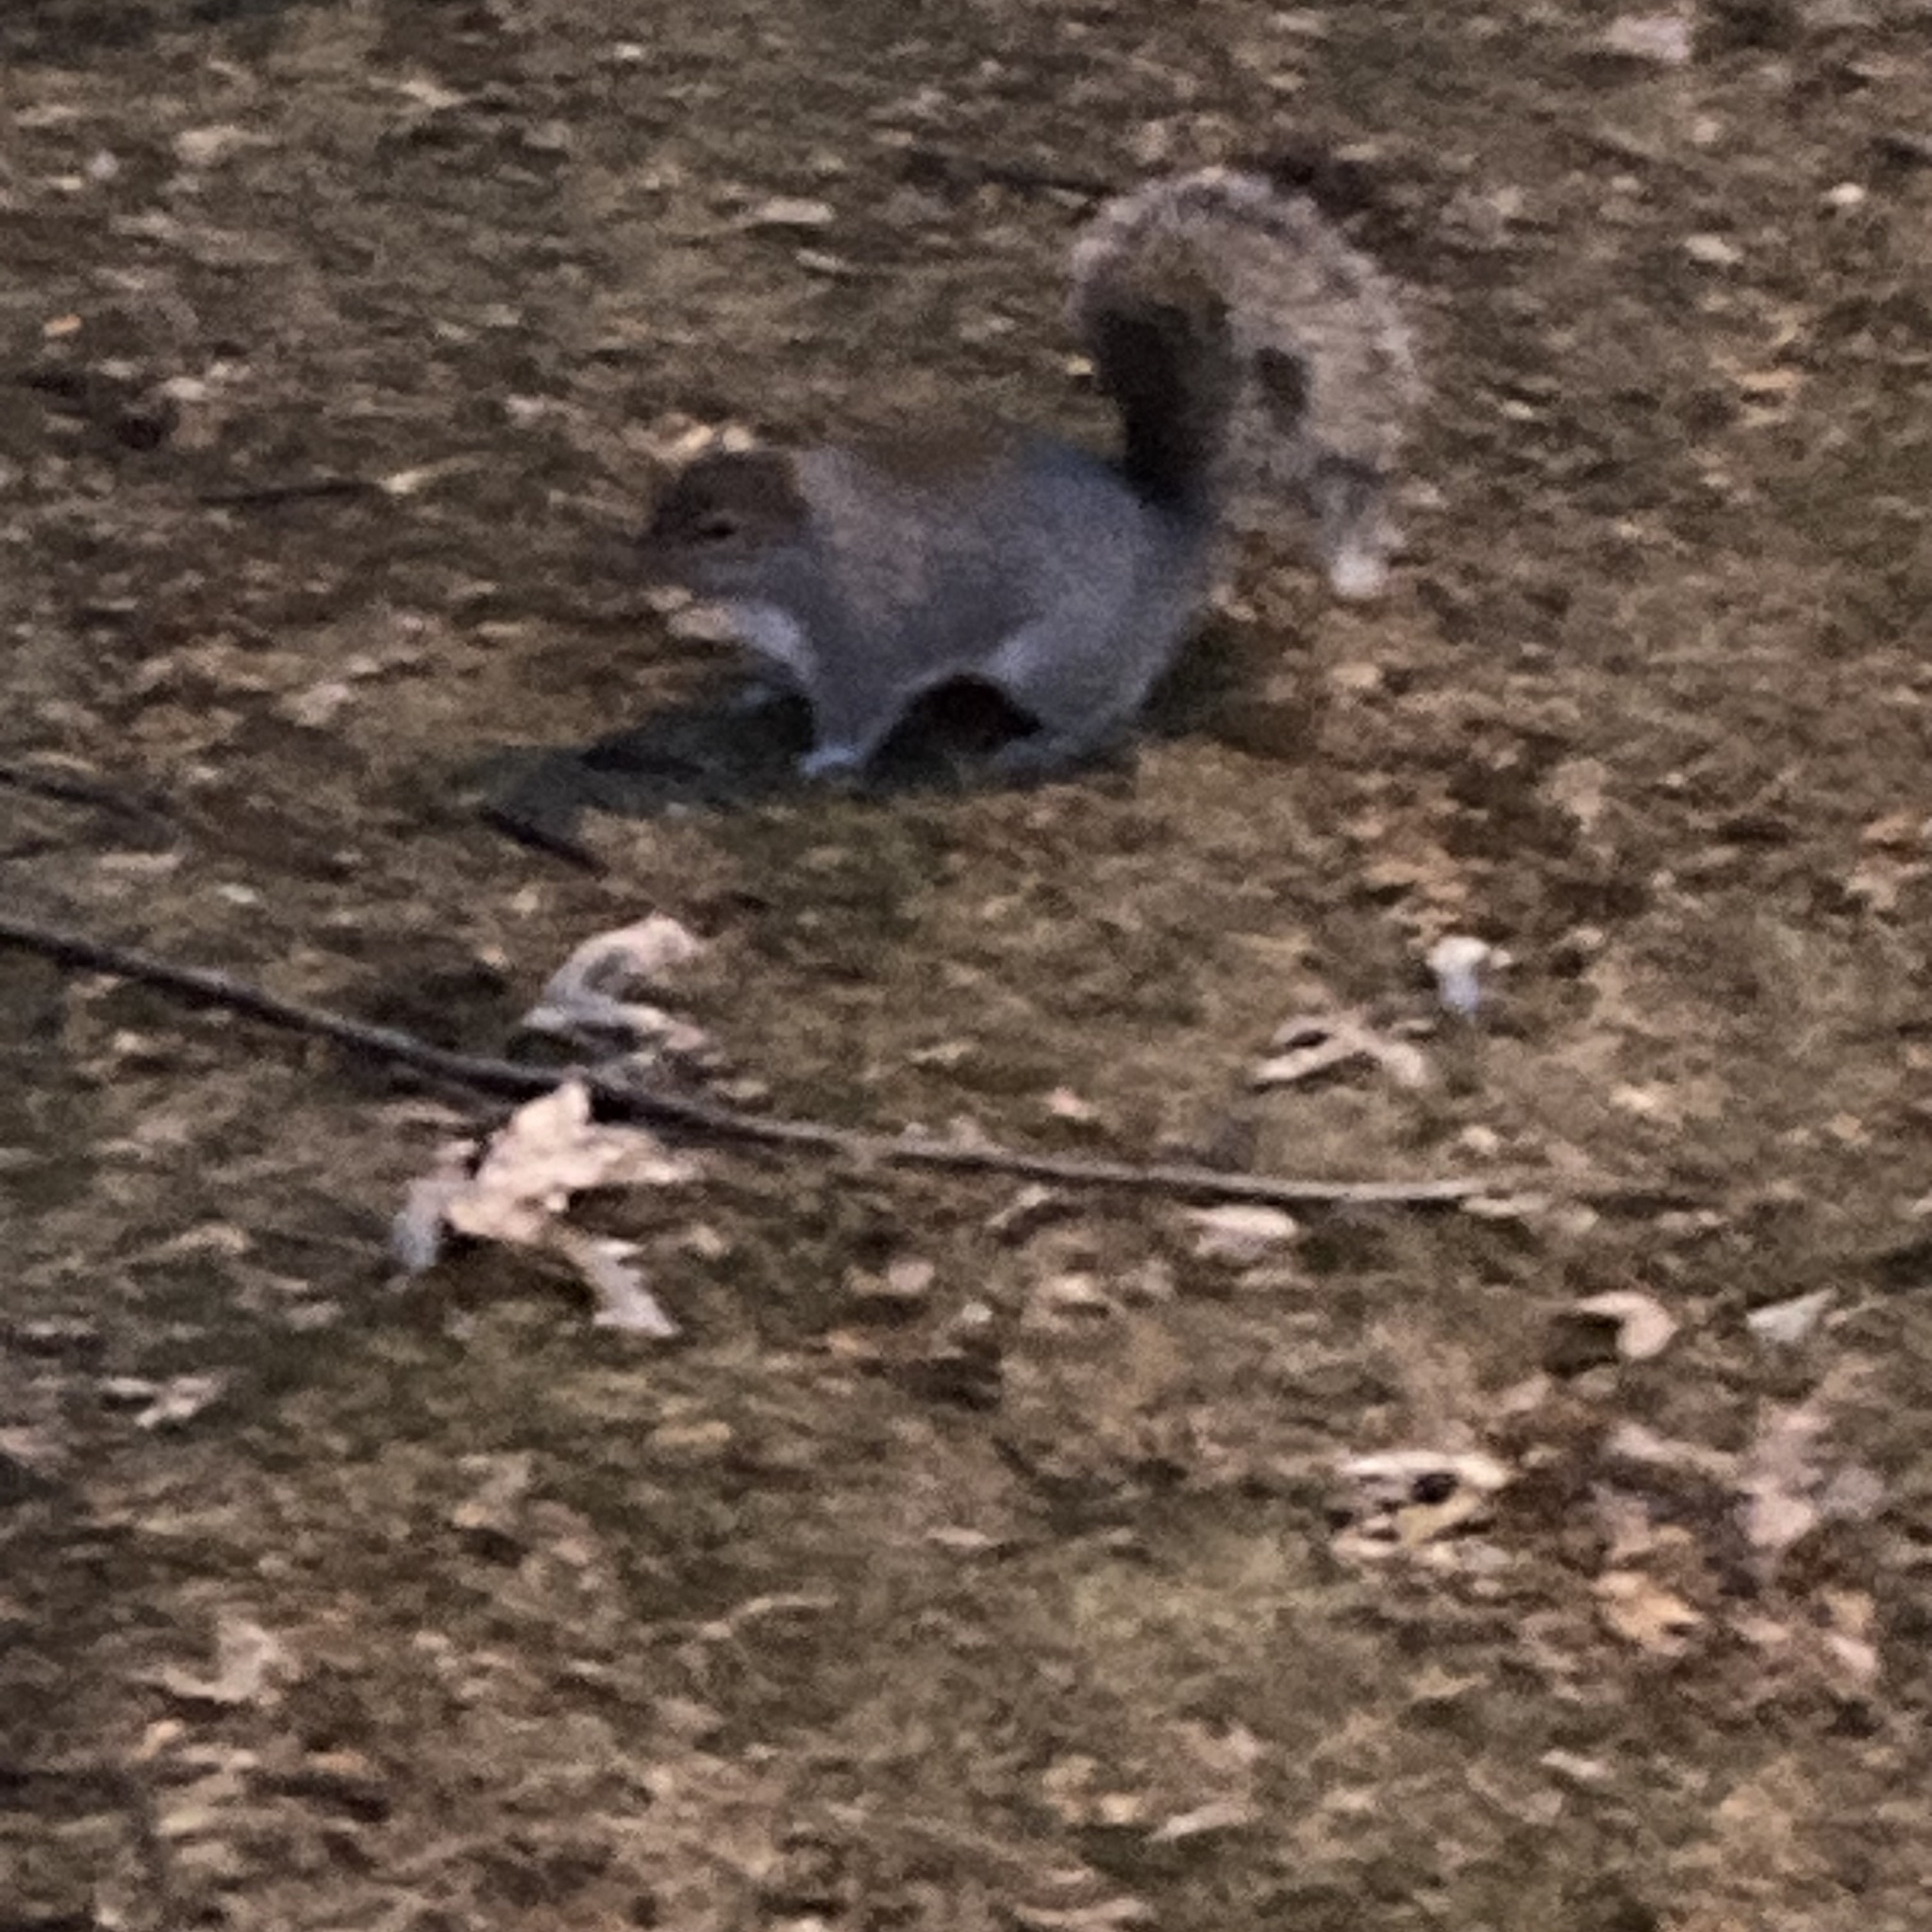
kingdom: Animalia
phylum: Chordata
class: Mammalia
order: Rodentia
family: Sciuridae
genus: Sciurus
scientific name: Sciurus carolinensis
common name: Eastern gray squirrel
